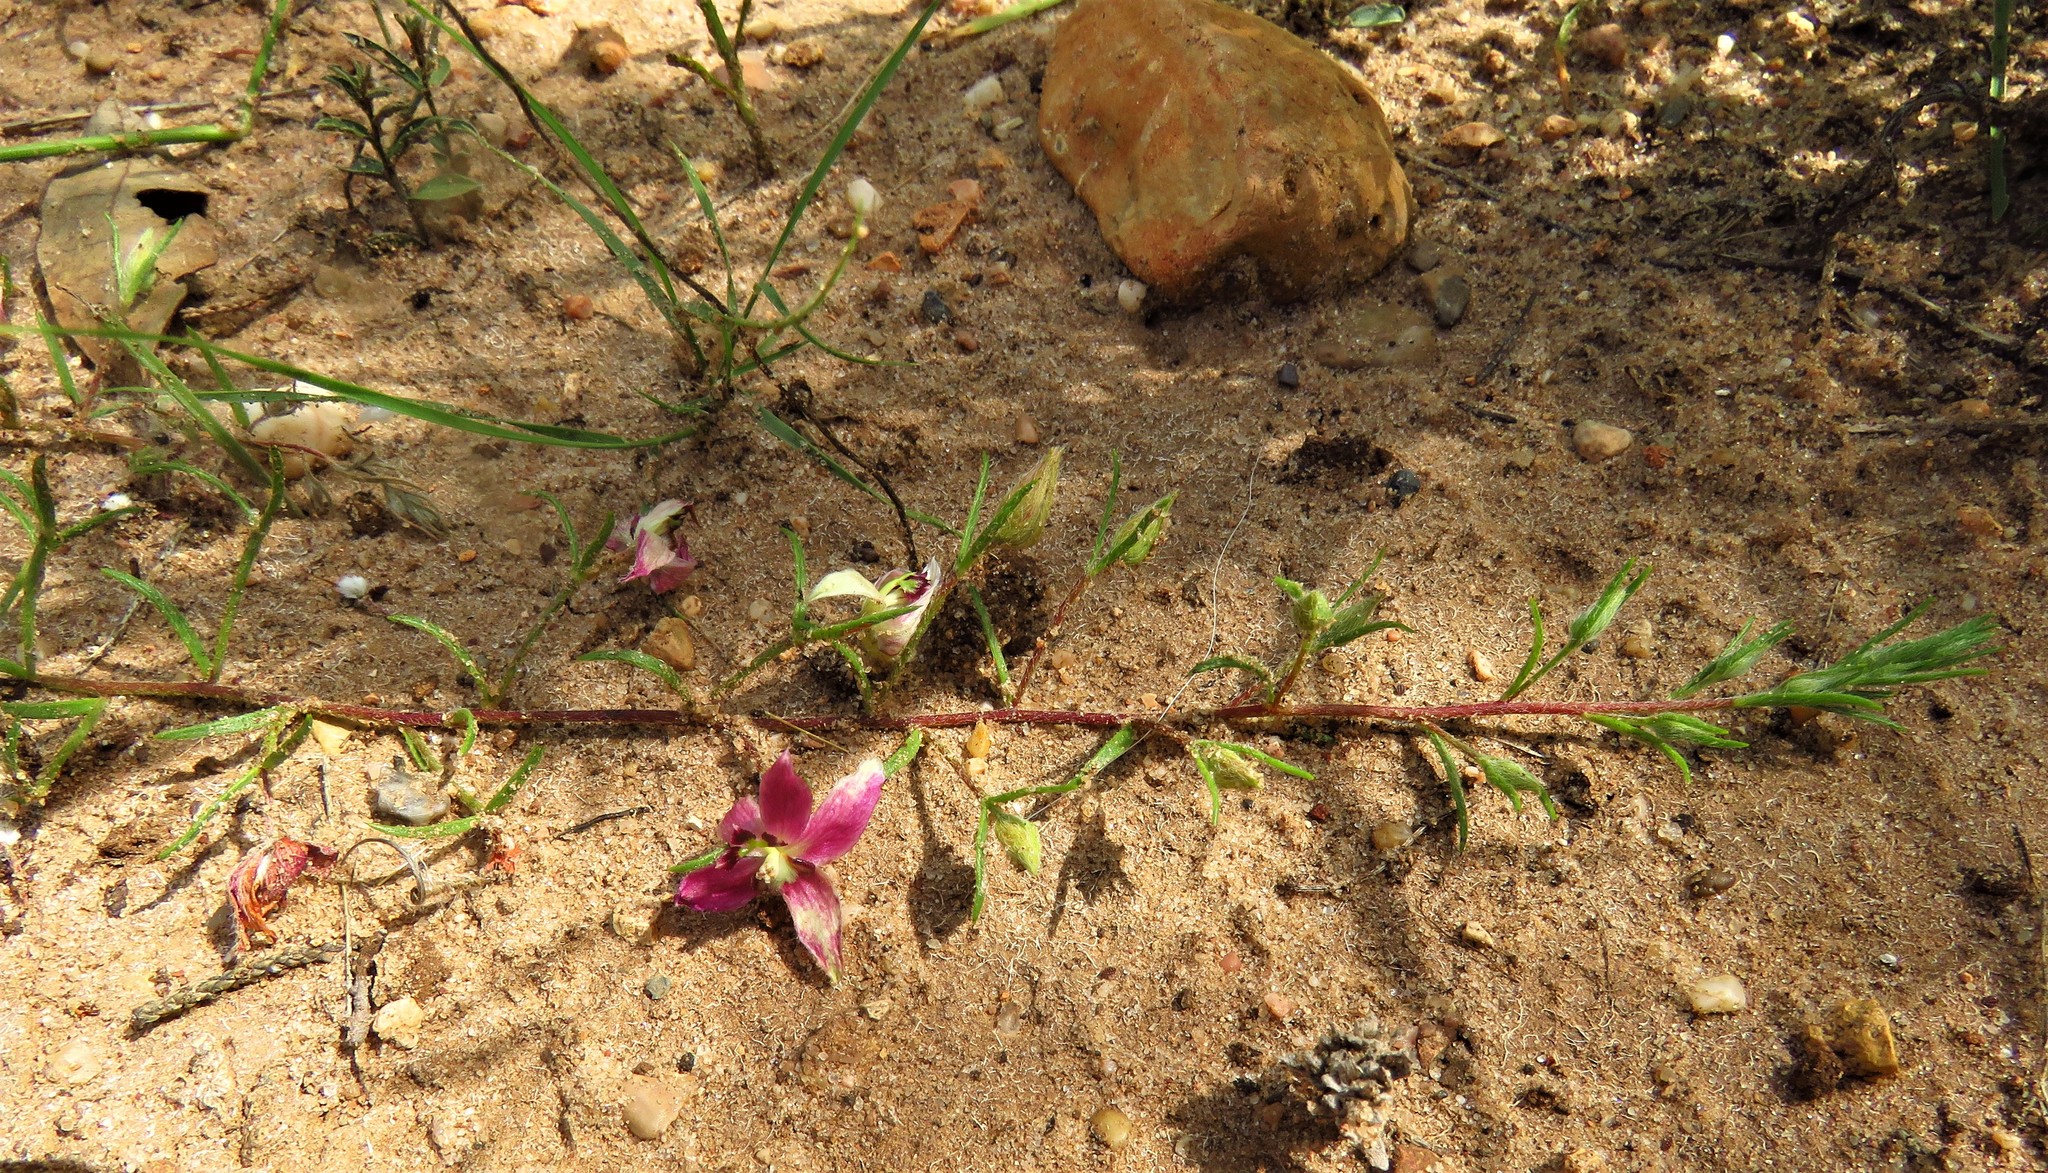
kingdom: Plantae
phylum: Tracheophyta
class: Magnoliopsida
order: Zygophyllales
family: Krameriaceae
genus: Krameria
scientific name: Krameria lanceolata
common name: Ratany
